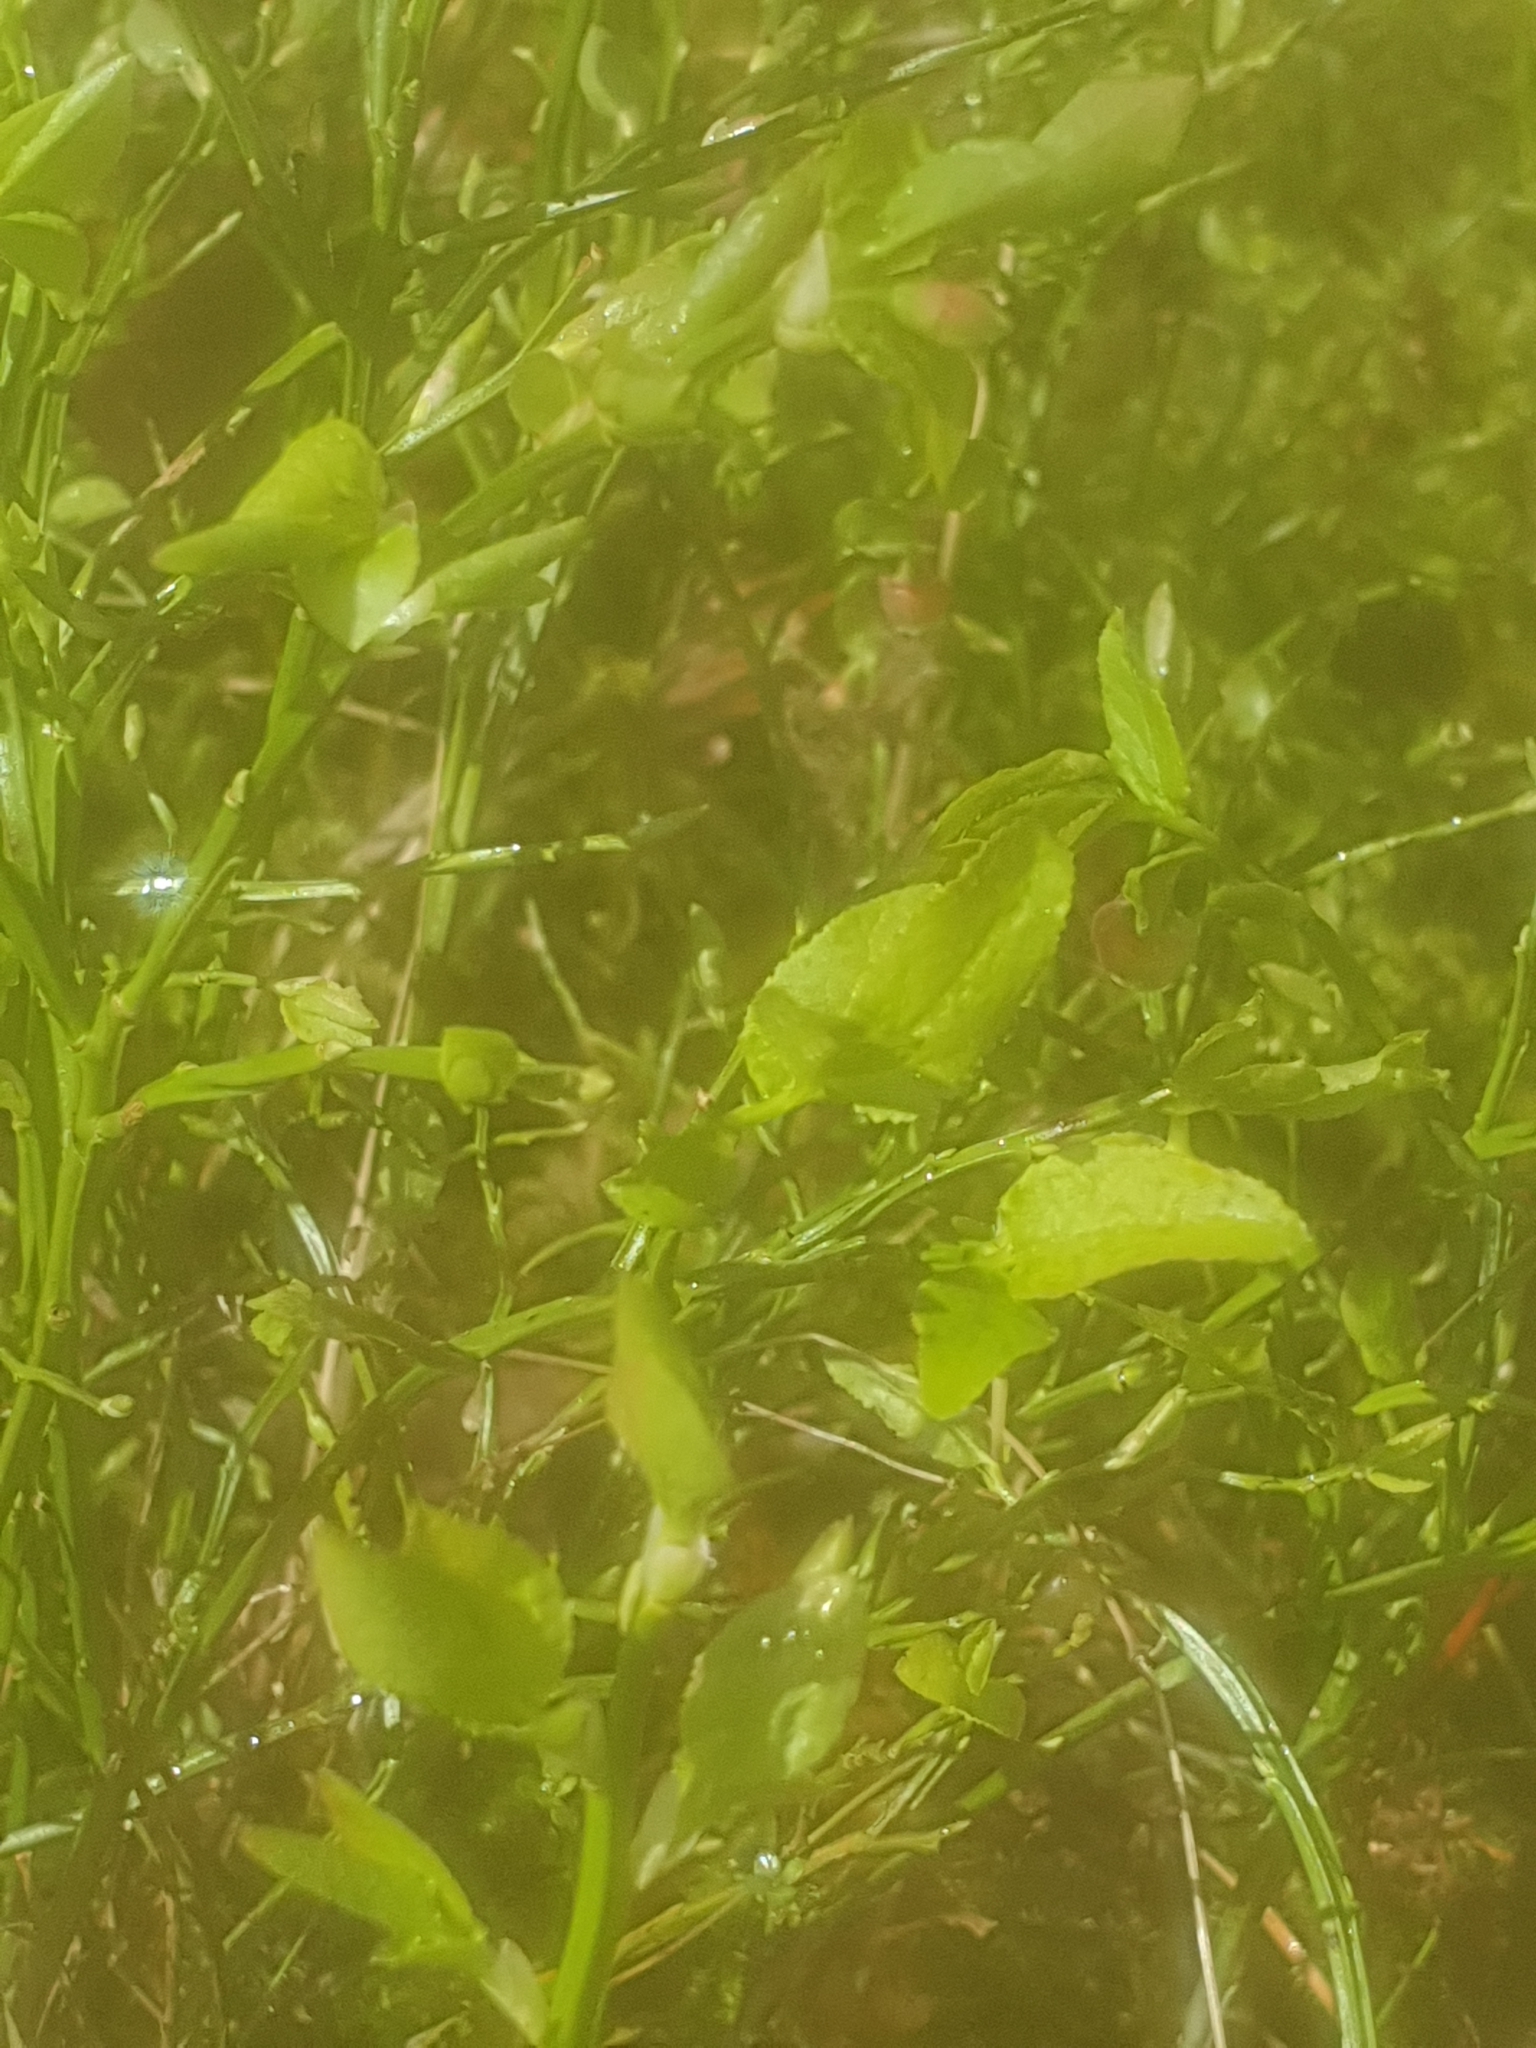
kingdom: Plantae
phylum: Tracheophyta
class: Magnoliopsida
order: Ericales
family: Ericaceae
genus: Vaccinium
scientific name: Vaccinium myrtillus
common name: Bilberry
